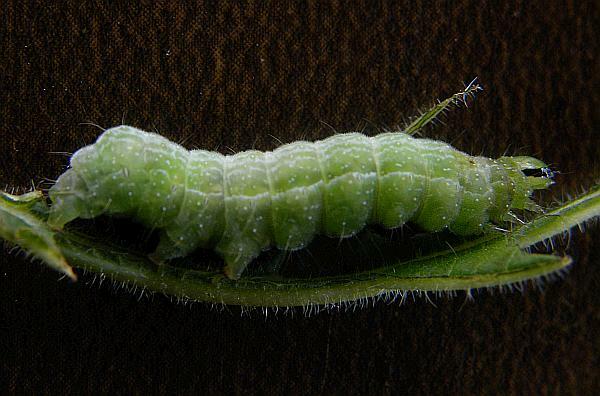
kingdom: Animalia
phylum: Arthropoda
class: Insecta
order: Lepidoptera
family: Noctuidae
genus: Megalographa
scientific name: Megalographa biloba
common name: Cutworm
